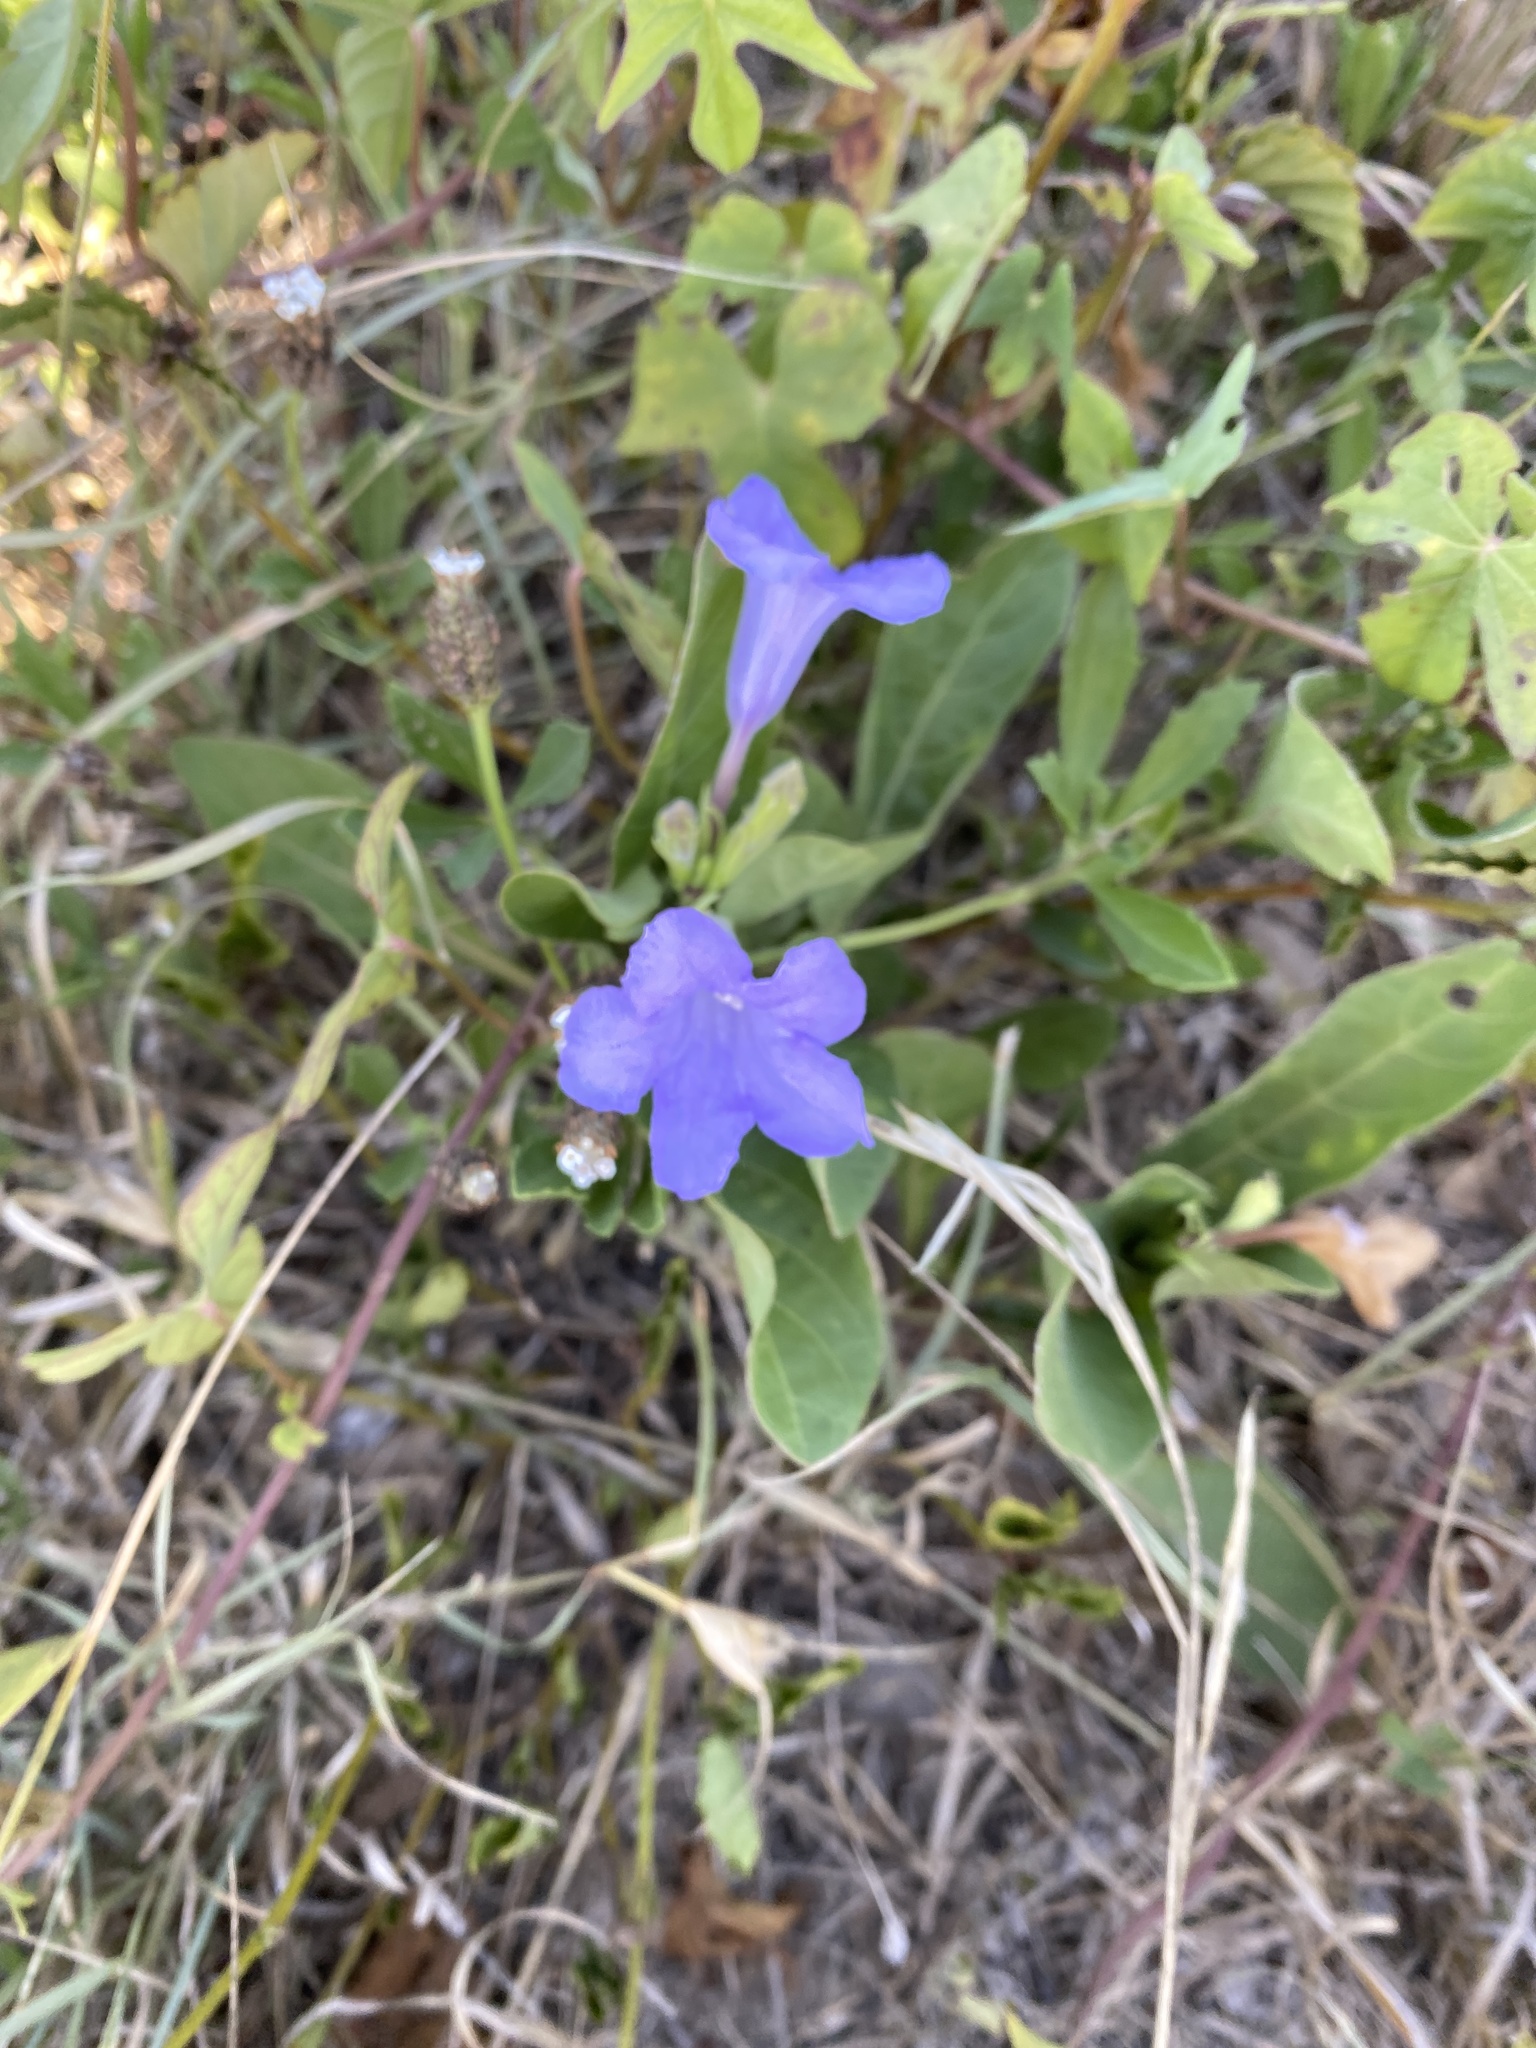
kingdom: Plantae
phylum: Tracheophyta
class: Magnoliopsida
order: Lamiales
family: Acanthaceae
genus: Ruellia
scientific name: Ruellia ciliatiflora
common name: Hairyflower wild petunia
